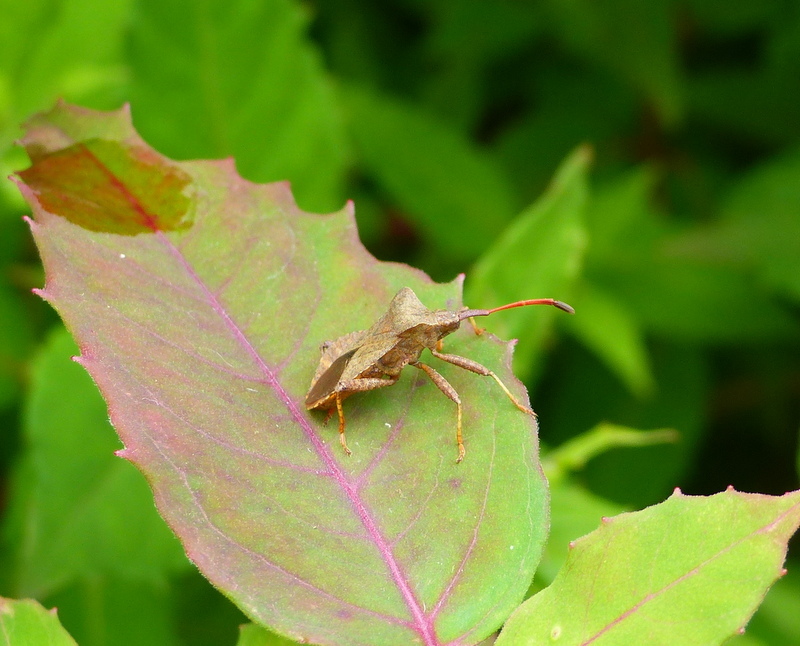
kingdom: Animalia
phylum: Arthropoda
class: Insecta
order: Hemiptera
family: Coreidae
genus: Coreus
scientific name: Coreus marginatus
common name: Dock bug
